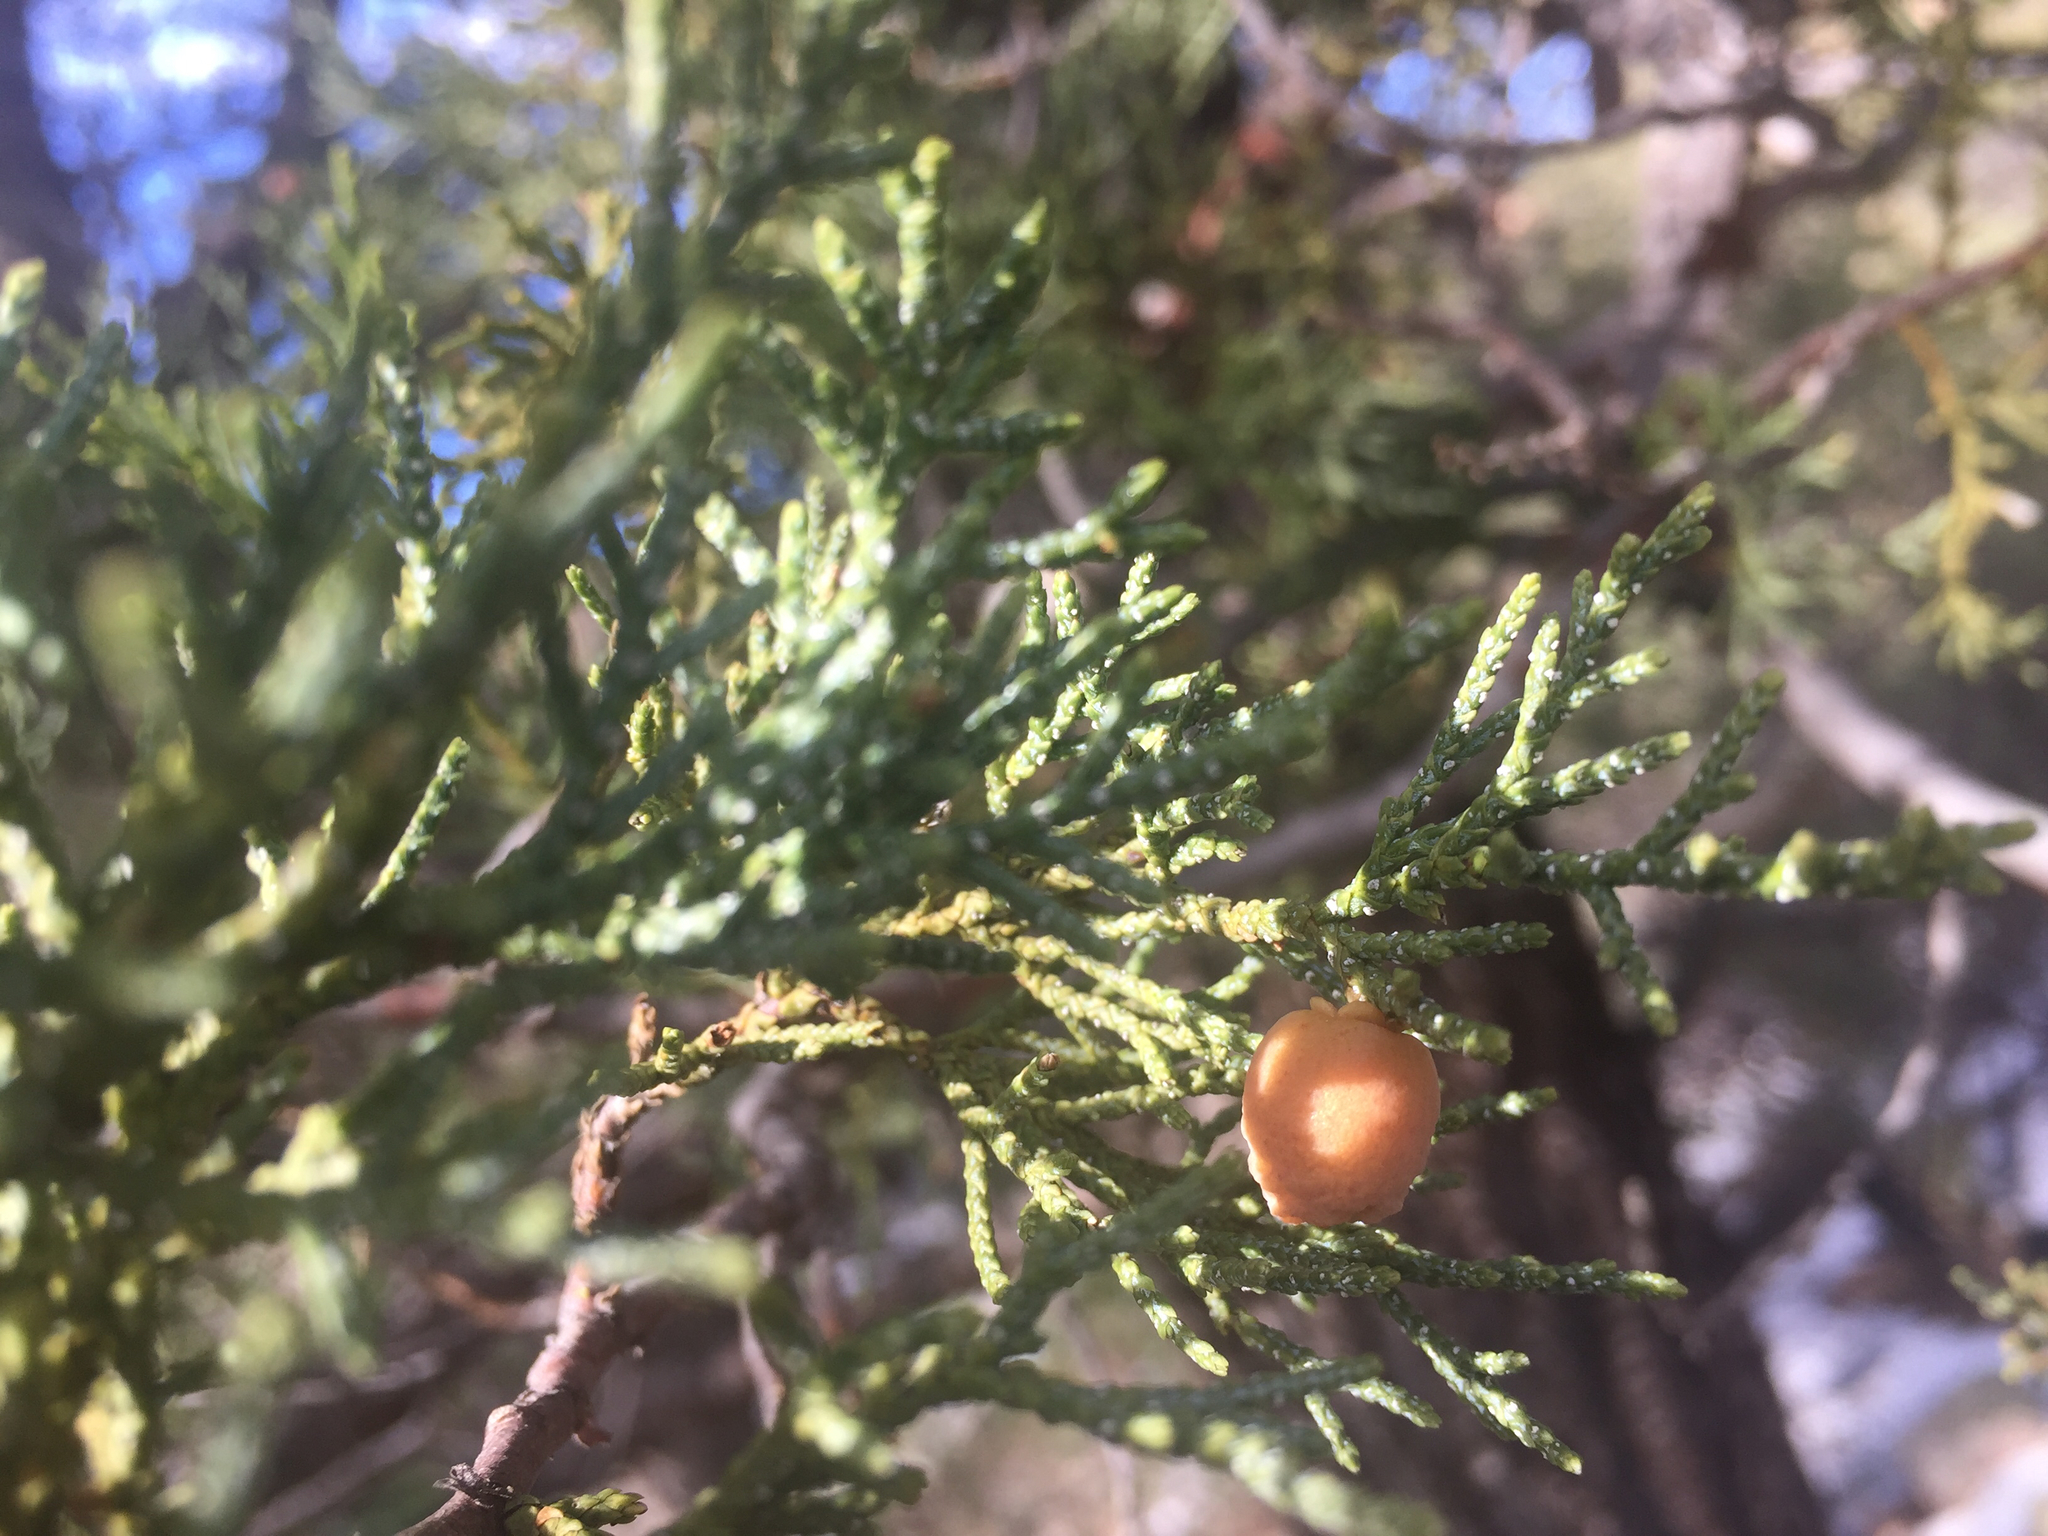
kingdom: Plantae
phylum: Tracheophyta
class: Pinopsida
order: Pinales
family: Cupressaceae
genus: Juniperus
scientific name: Juniperus deppeana
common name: Alligator juniper
